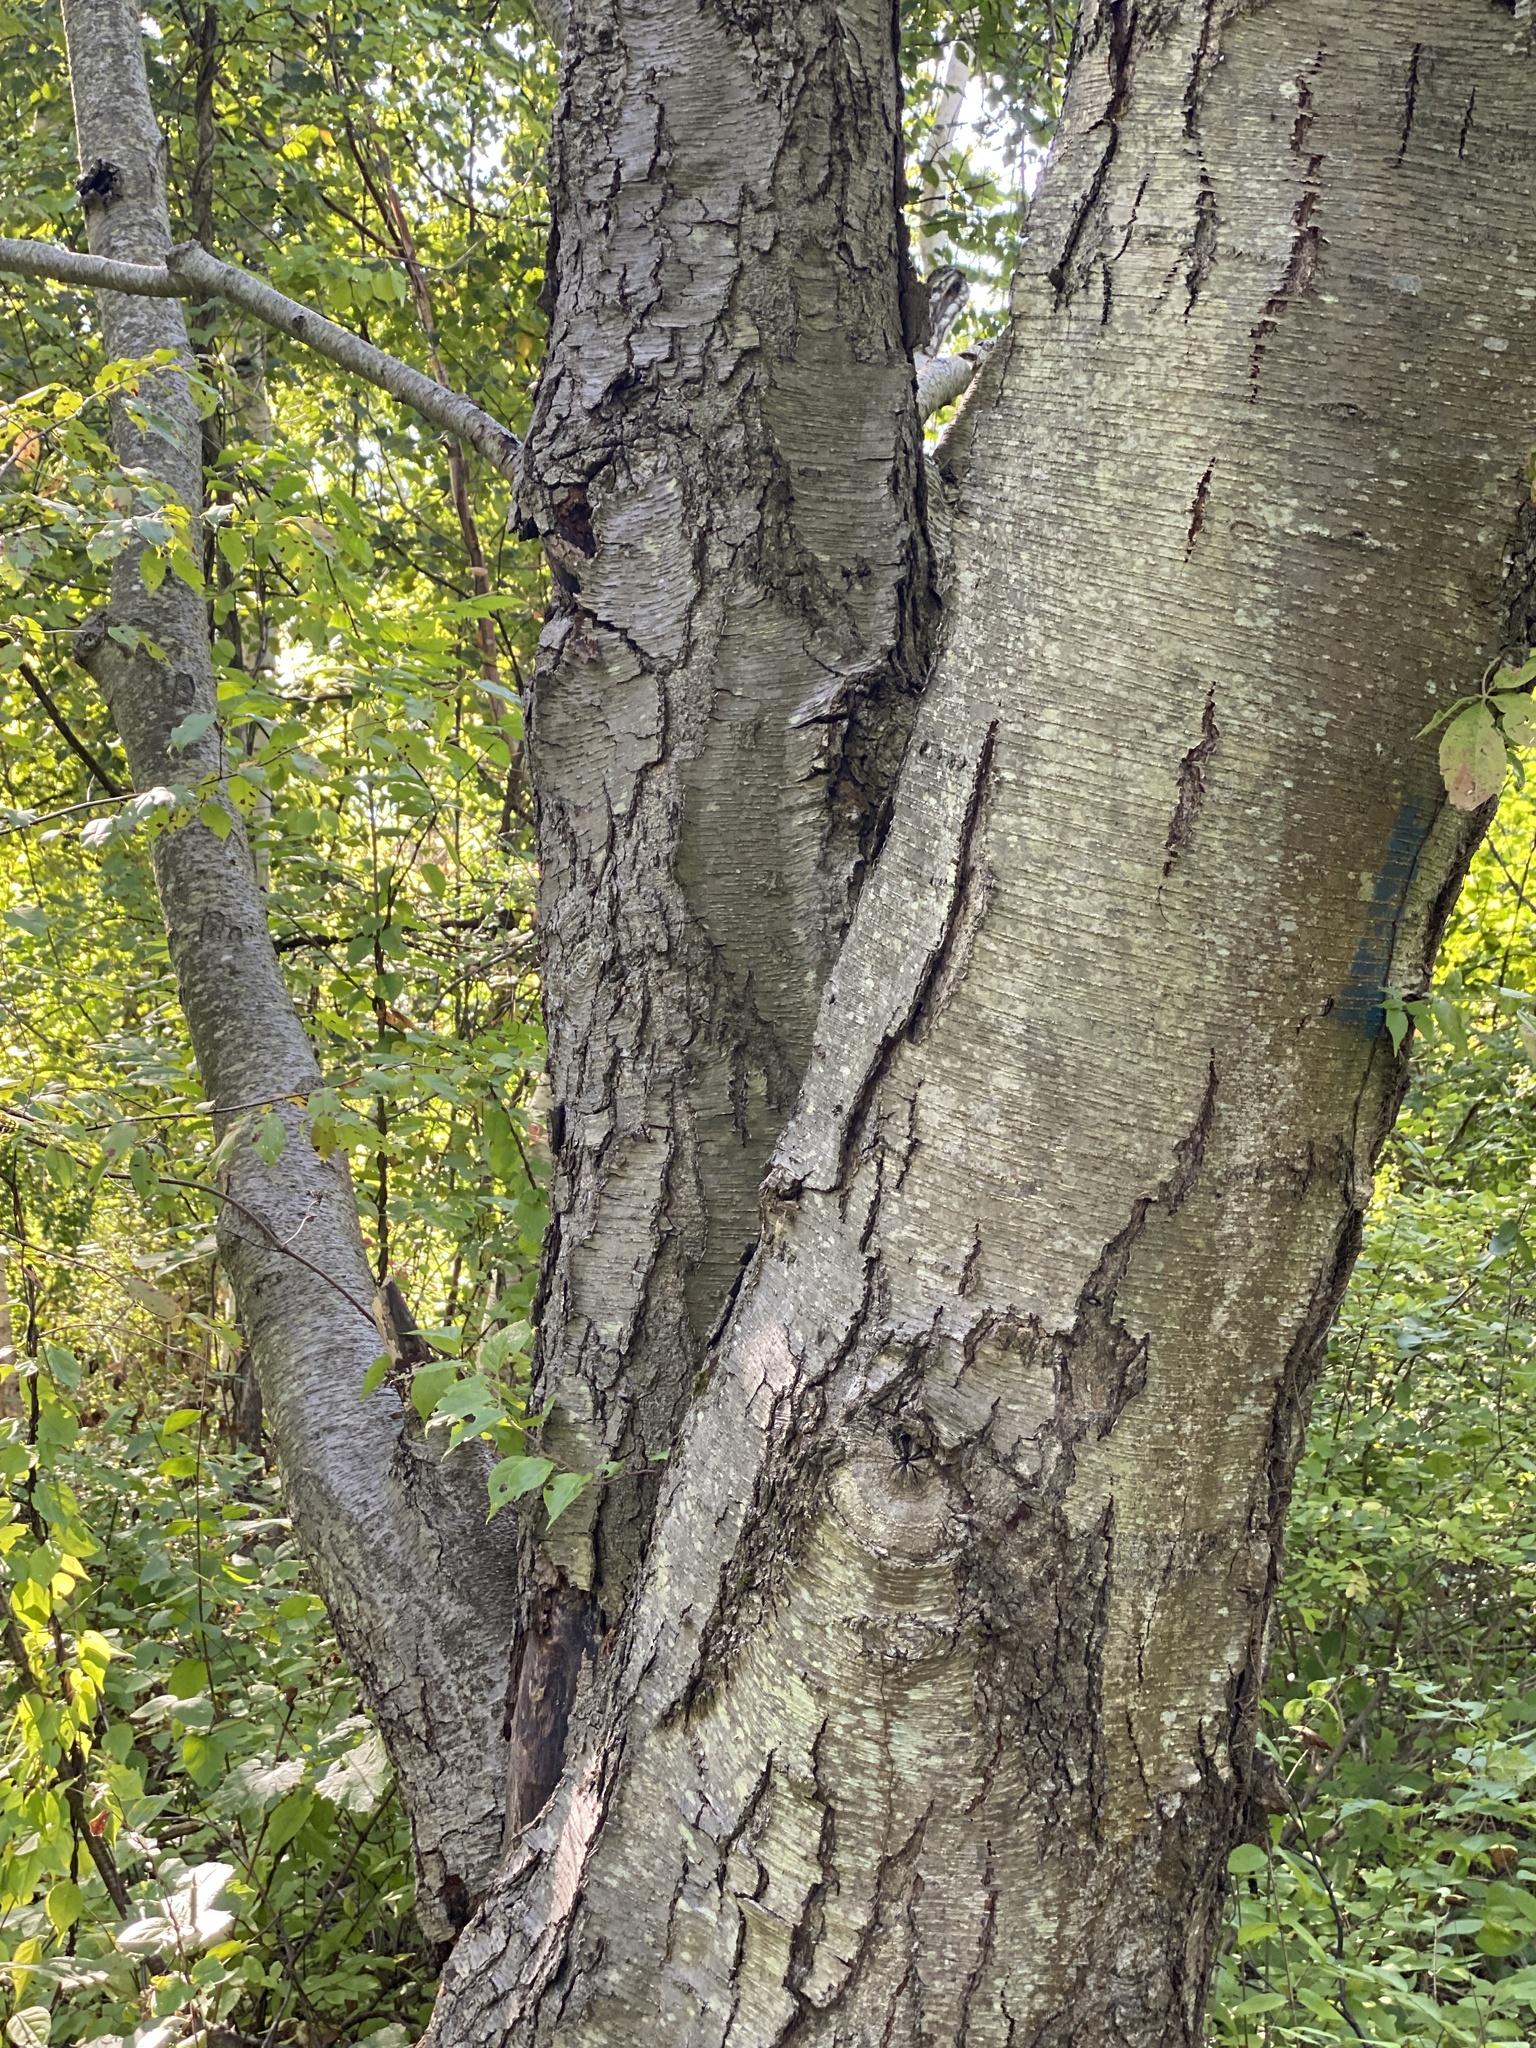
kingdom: Plantae
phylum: Tracheophyta
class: Magnoliopsida
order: Fagales
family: Betulaceae
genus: Betula
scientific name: Betula lenta
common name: Black birch
